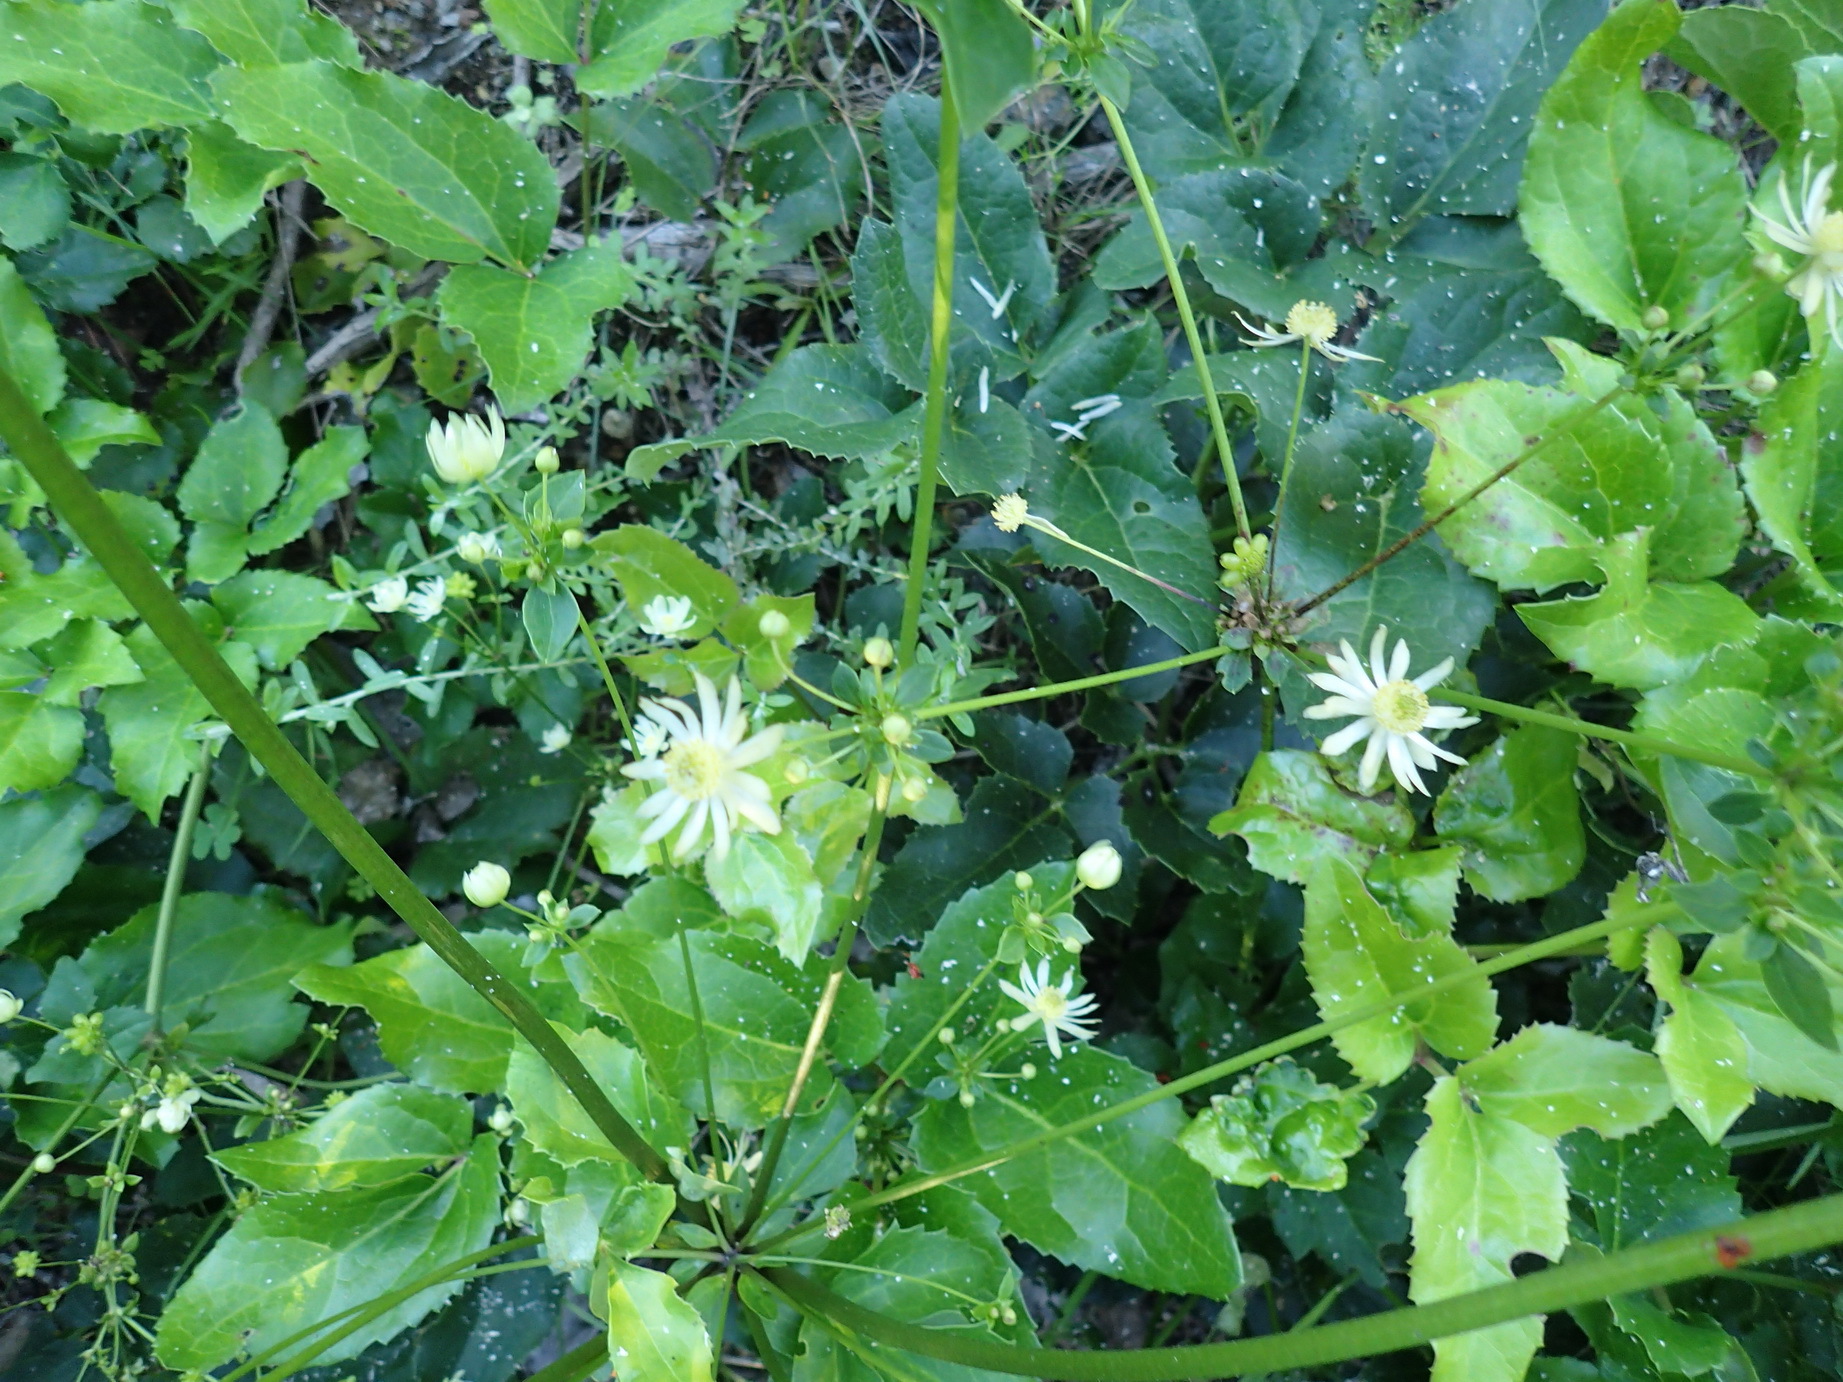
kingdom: Plantae
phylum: Tracheophyta
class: Magnoliopsida
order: Ranunculales
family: Ranunculaceae
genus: Knowltonia
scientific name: Knowltonia vesicatoria
